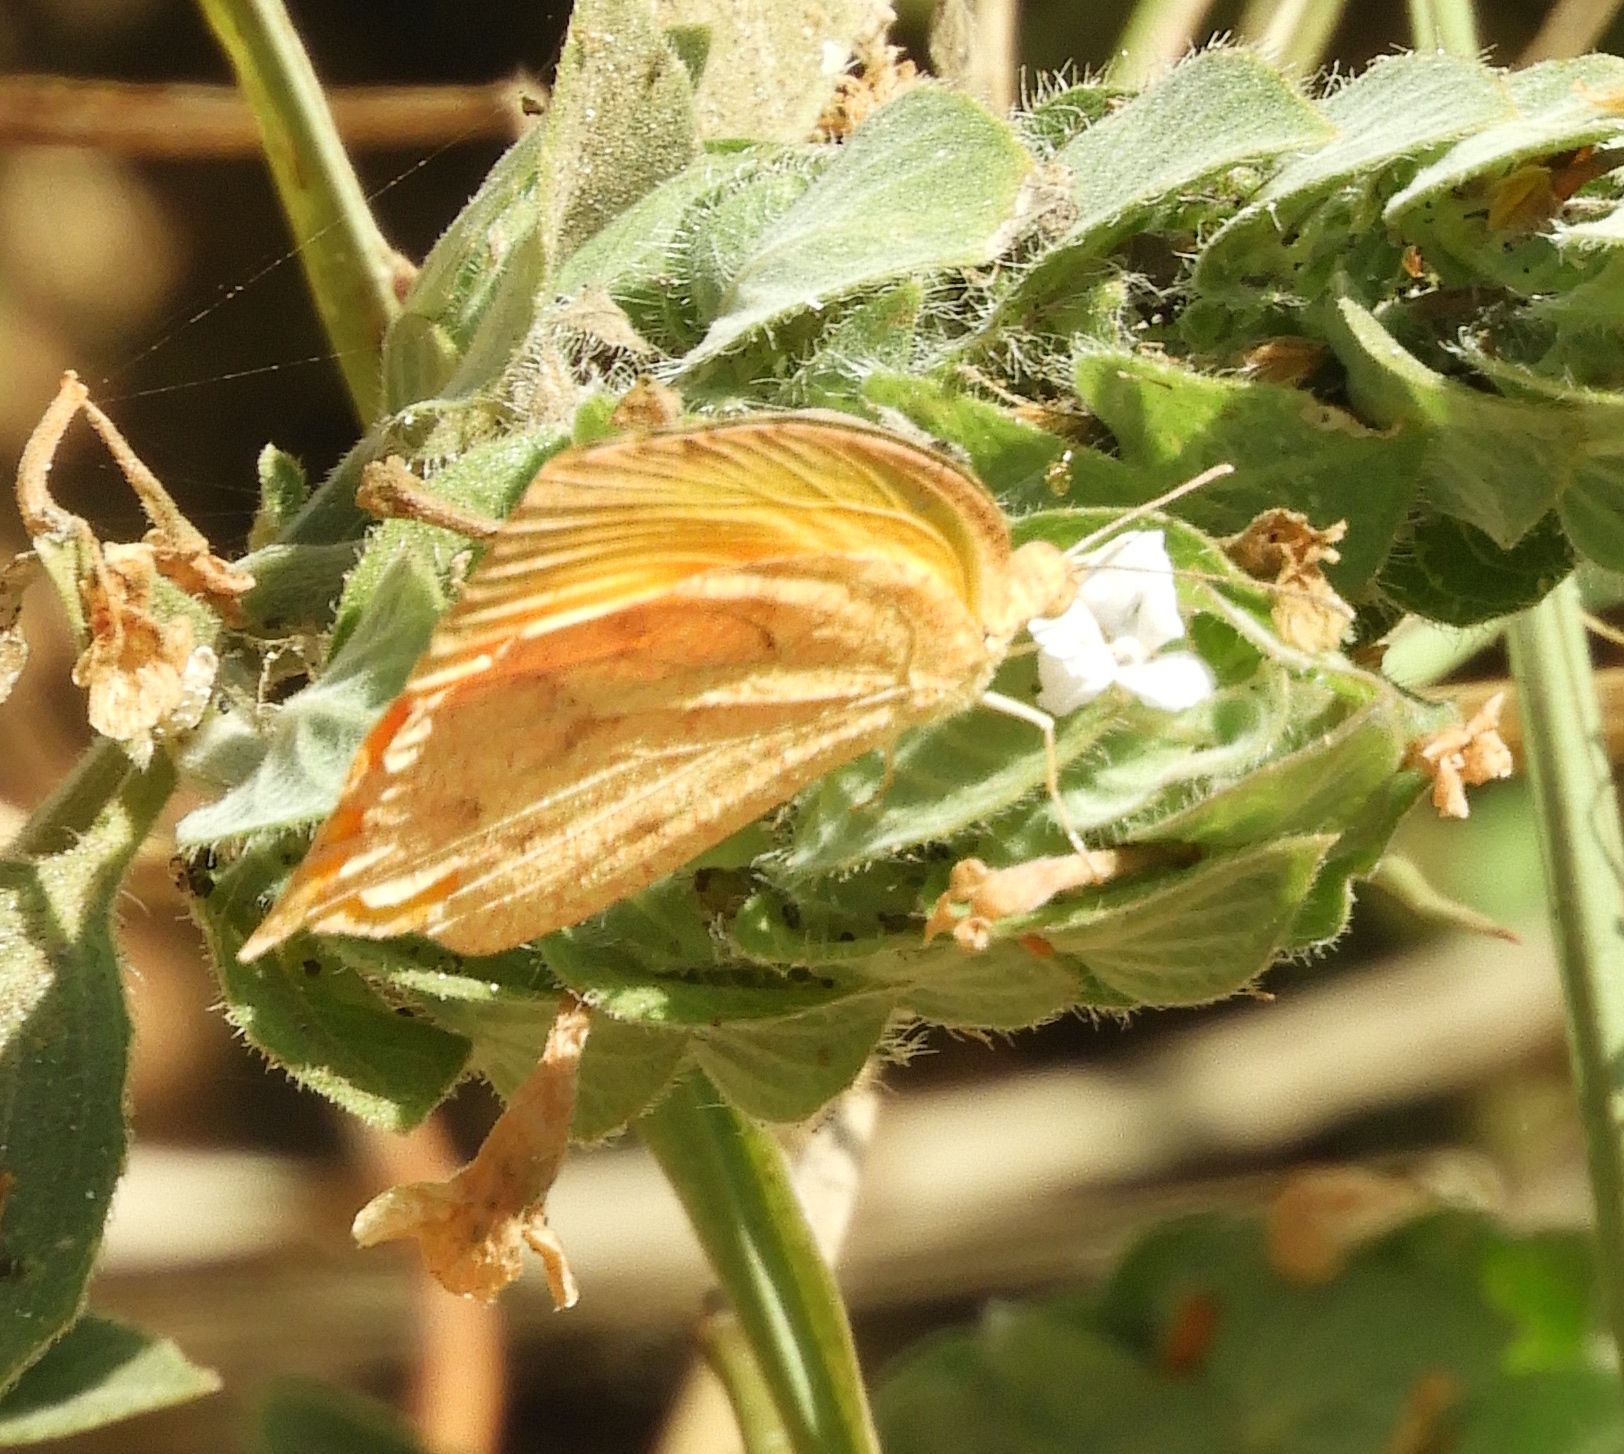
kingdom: Animalia
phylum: Arthropoda
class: Insecta
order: Lepidoptera
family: Pieridae
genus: Pyrisitia
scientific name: Pyrisitia proterpia
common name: Tailed orange
